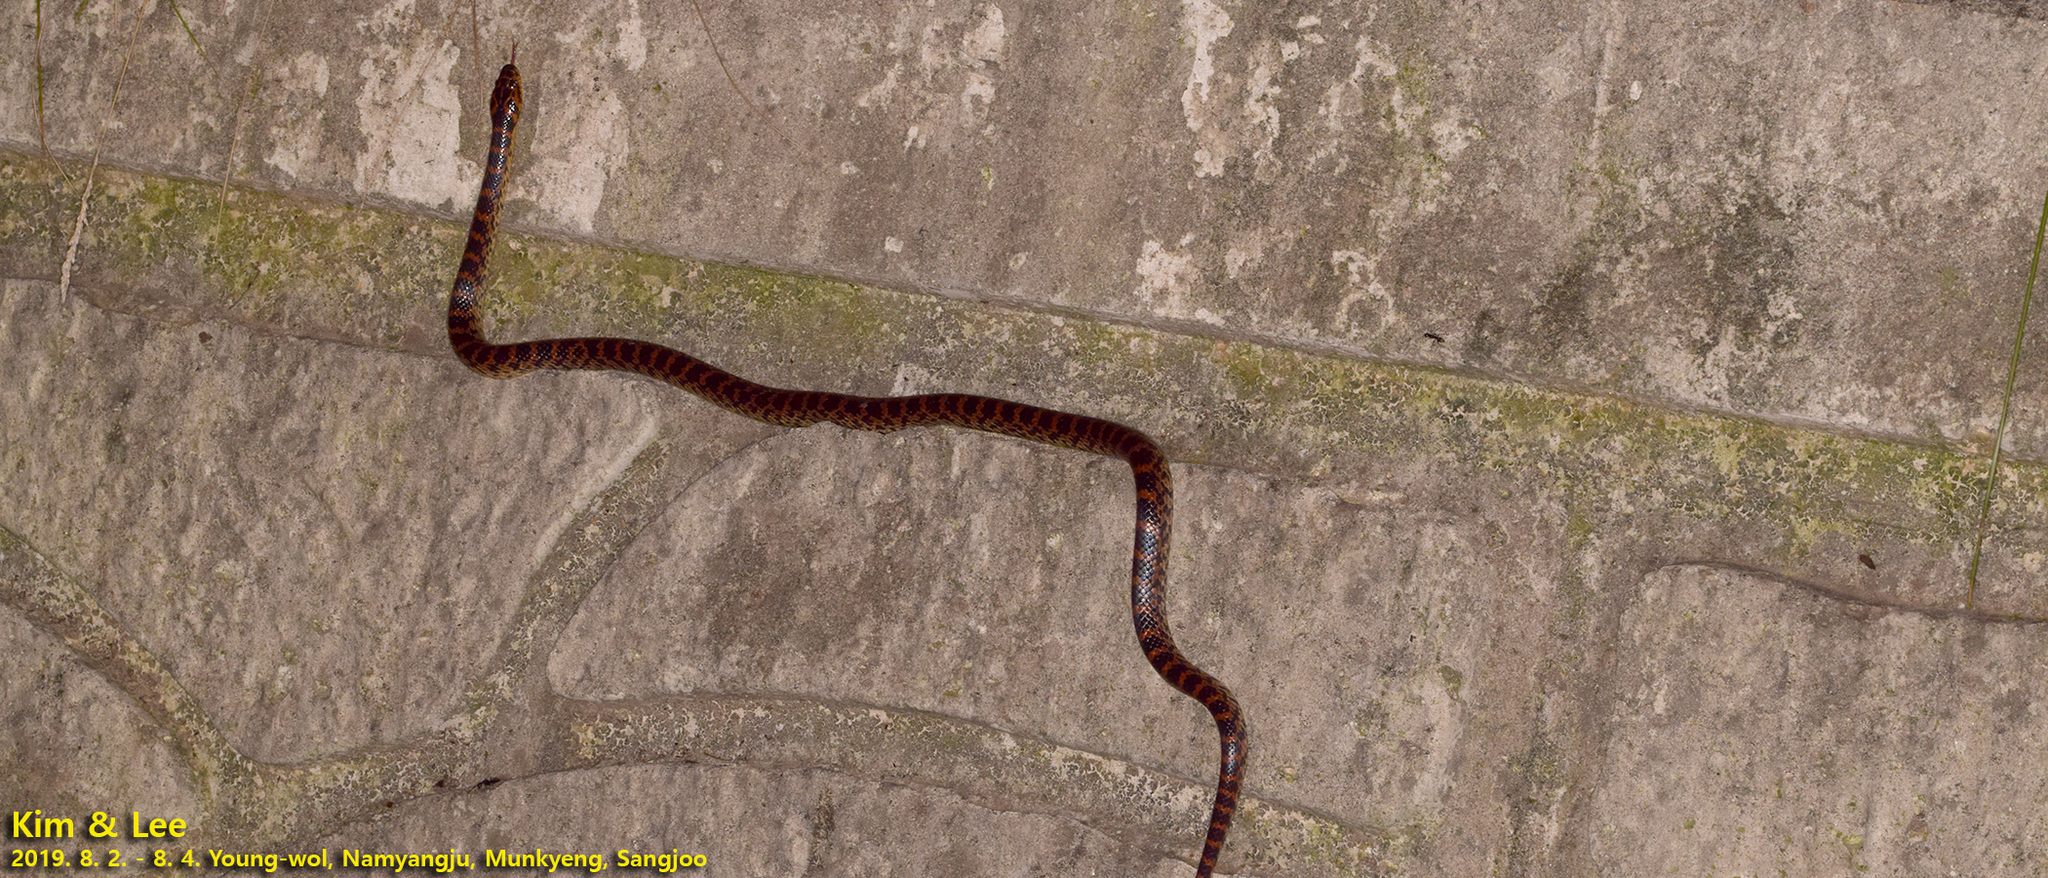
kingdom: Animalia
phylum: Chordata
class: Squamata
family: Colubridae
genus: Lycodon
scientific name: Lycodon rufozonatus
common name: Red-banded snake
